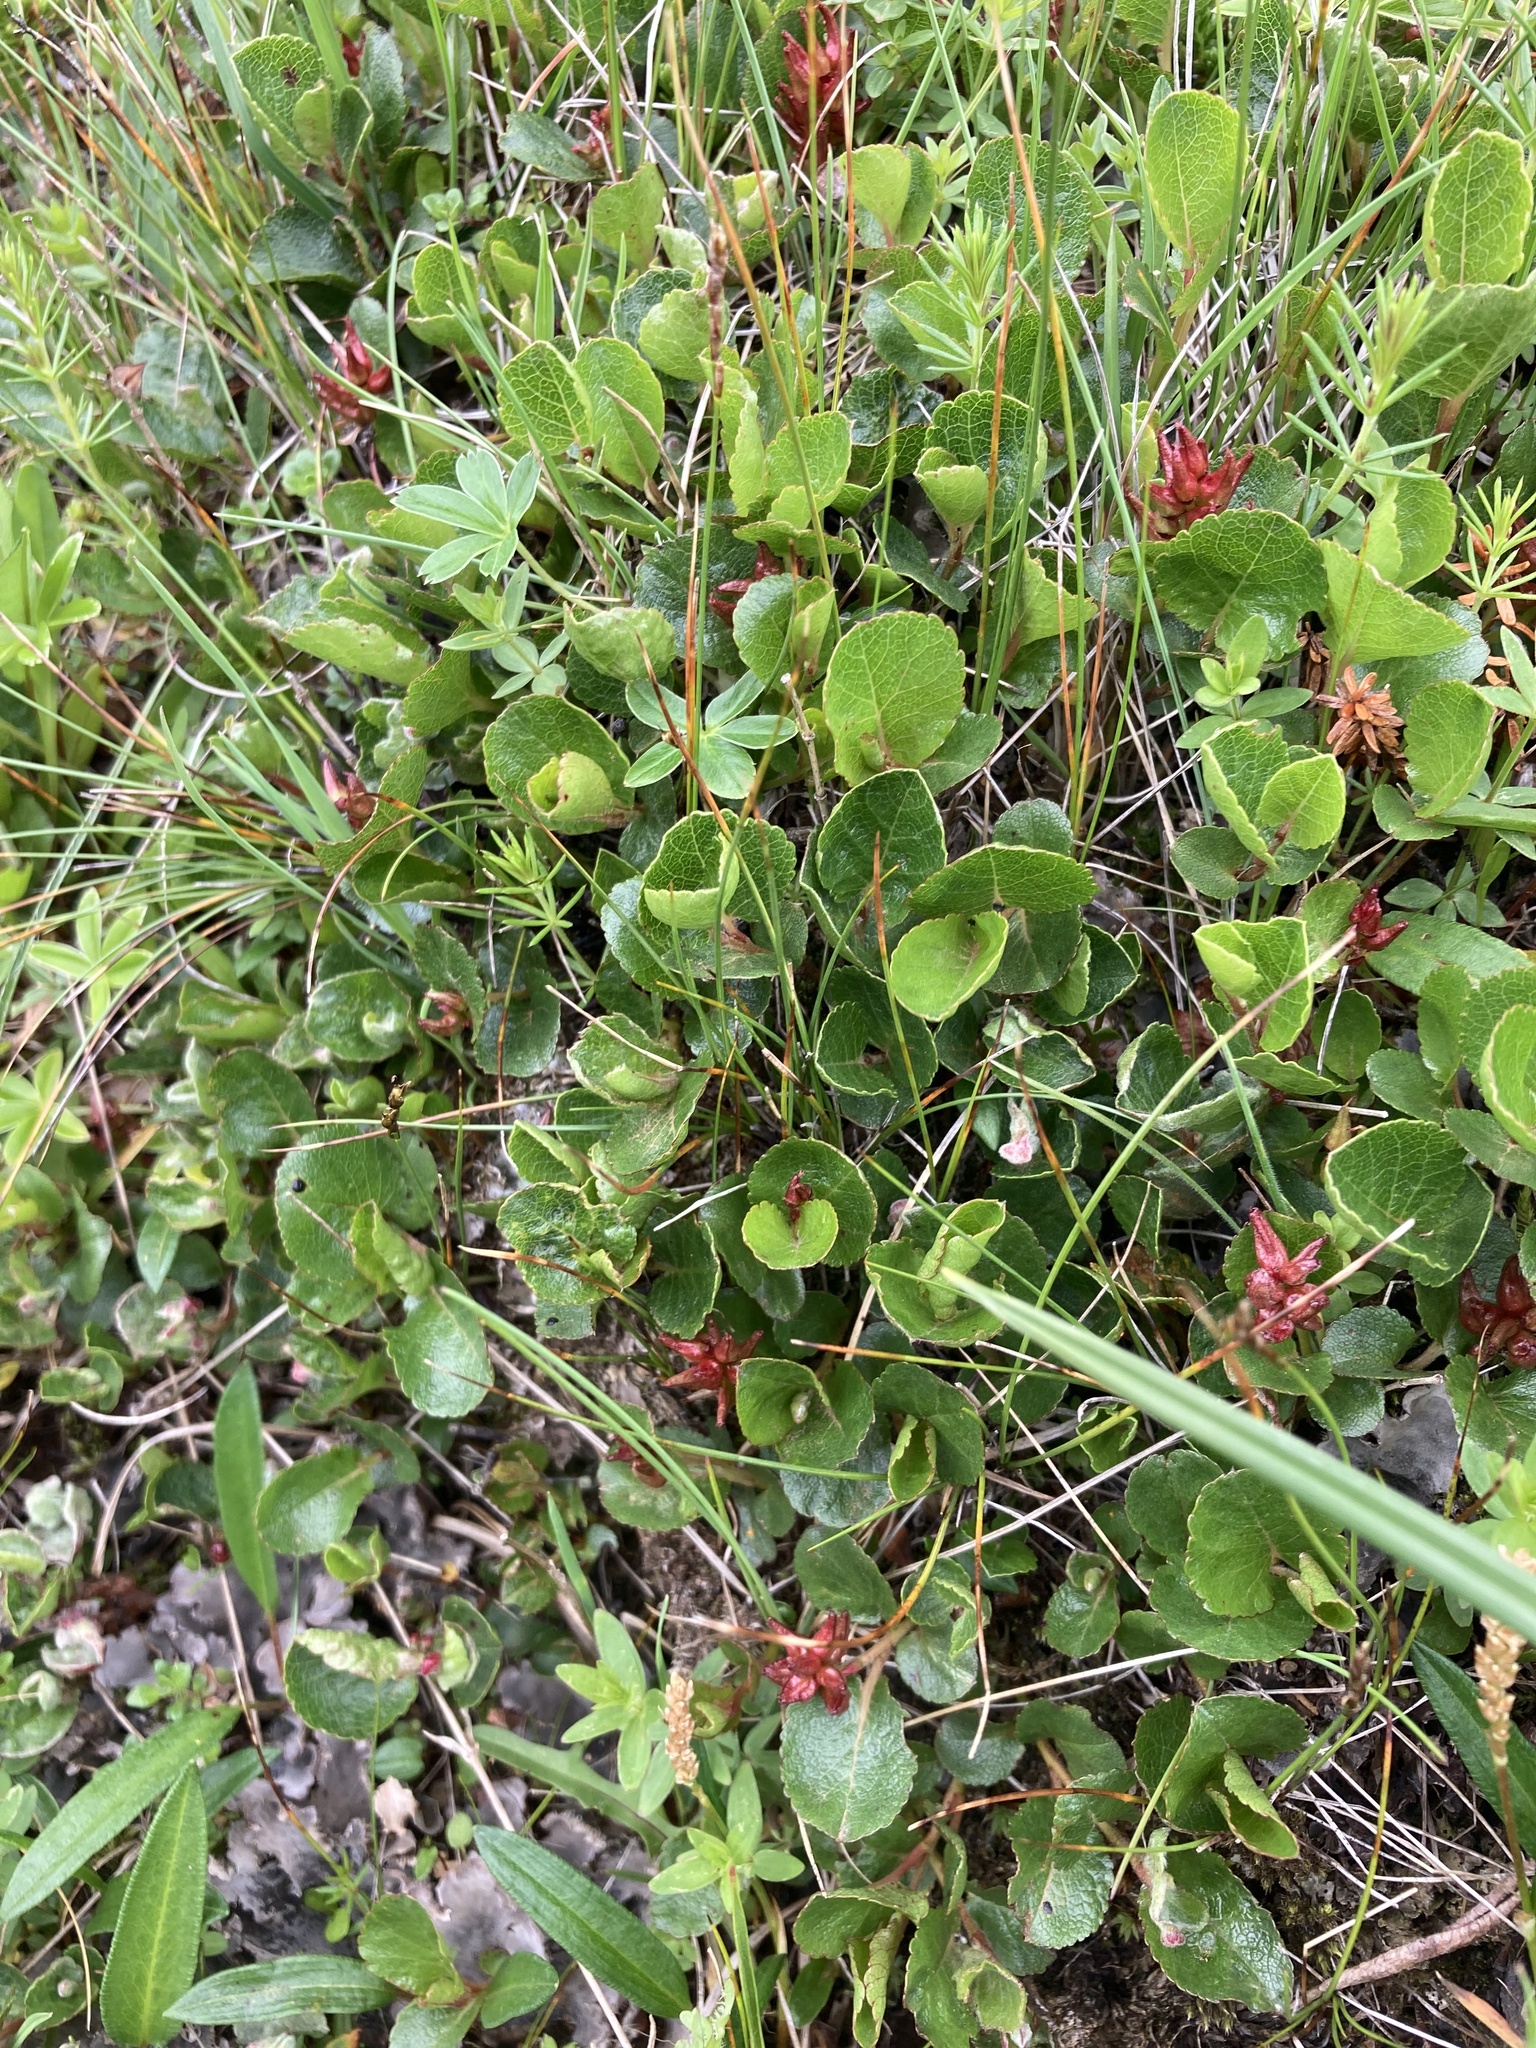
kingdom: Plantae
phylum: Tracheophyta
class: Magnoliopsida
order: Malpighiales
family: Salicaceae
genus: Salix
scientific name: Salix herbacea
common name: Dwarf willow
